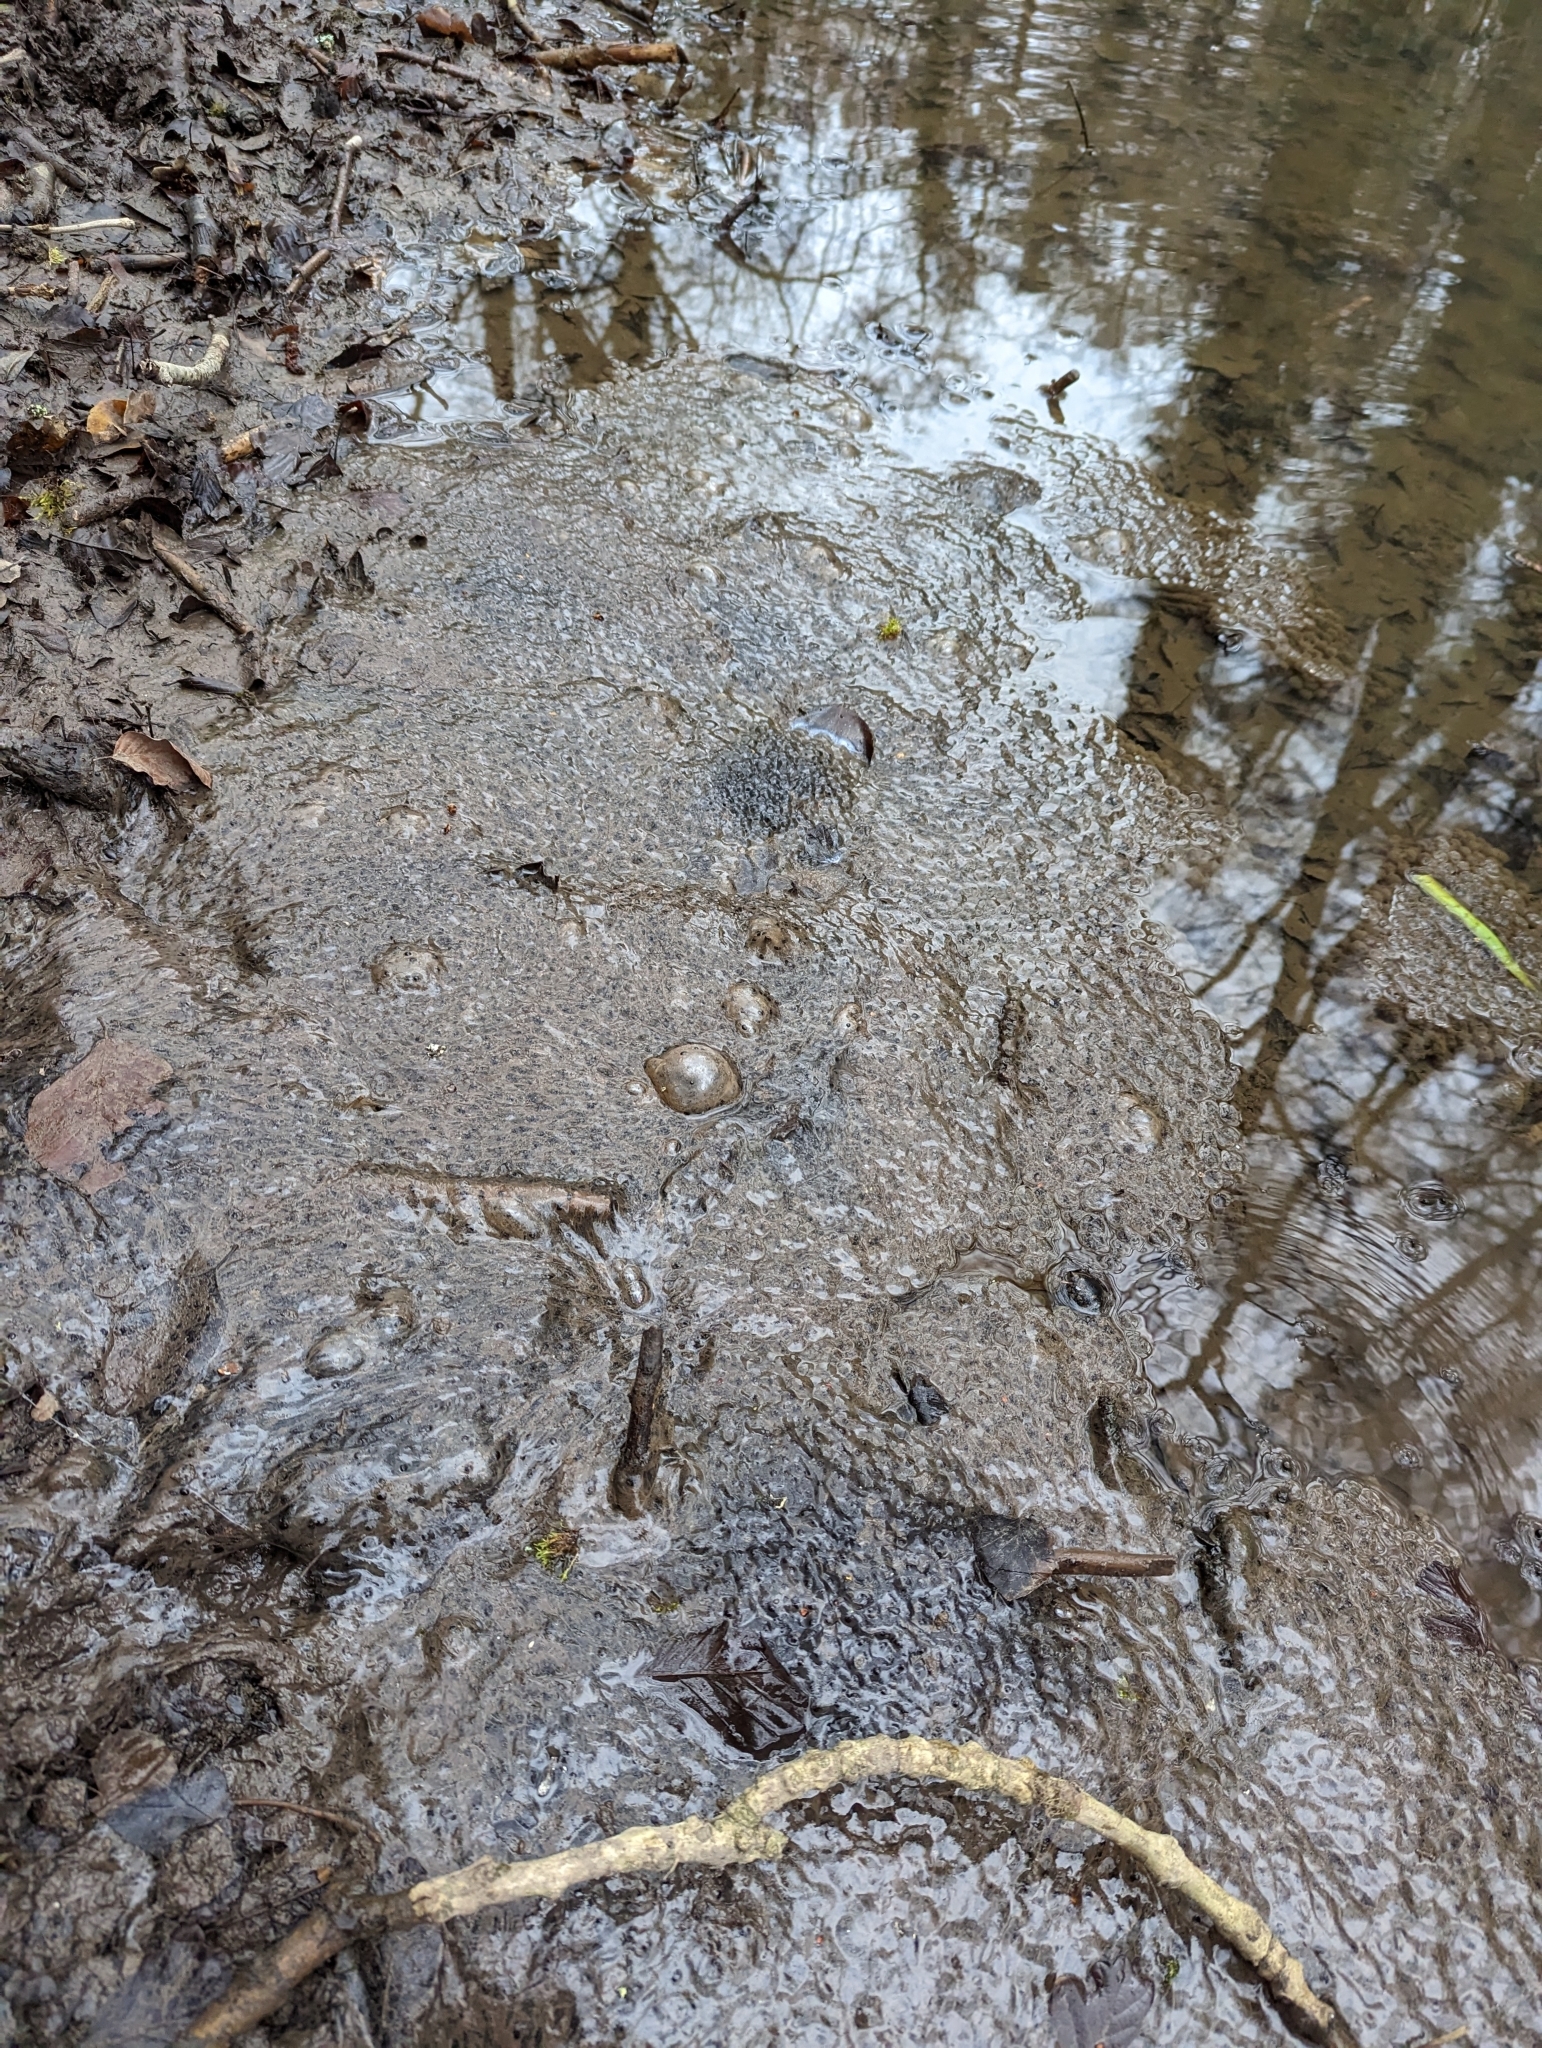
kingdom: Animalia
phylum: Chordata
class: Amphibia
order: Anura
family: Ranidae
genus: Rana
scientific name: Rana temporaria
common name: Common frog
